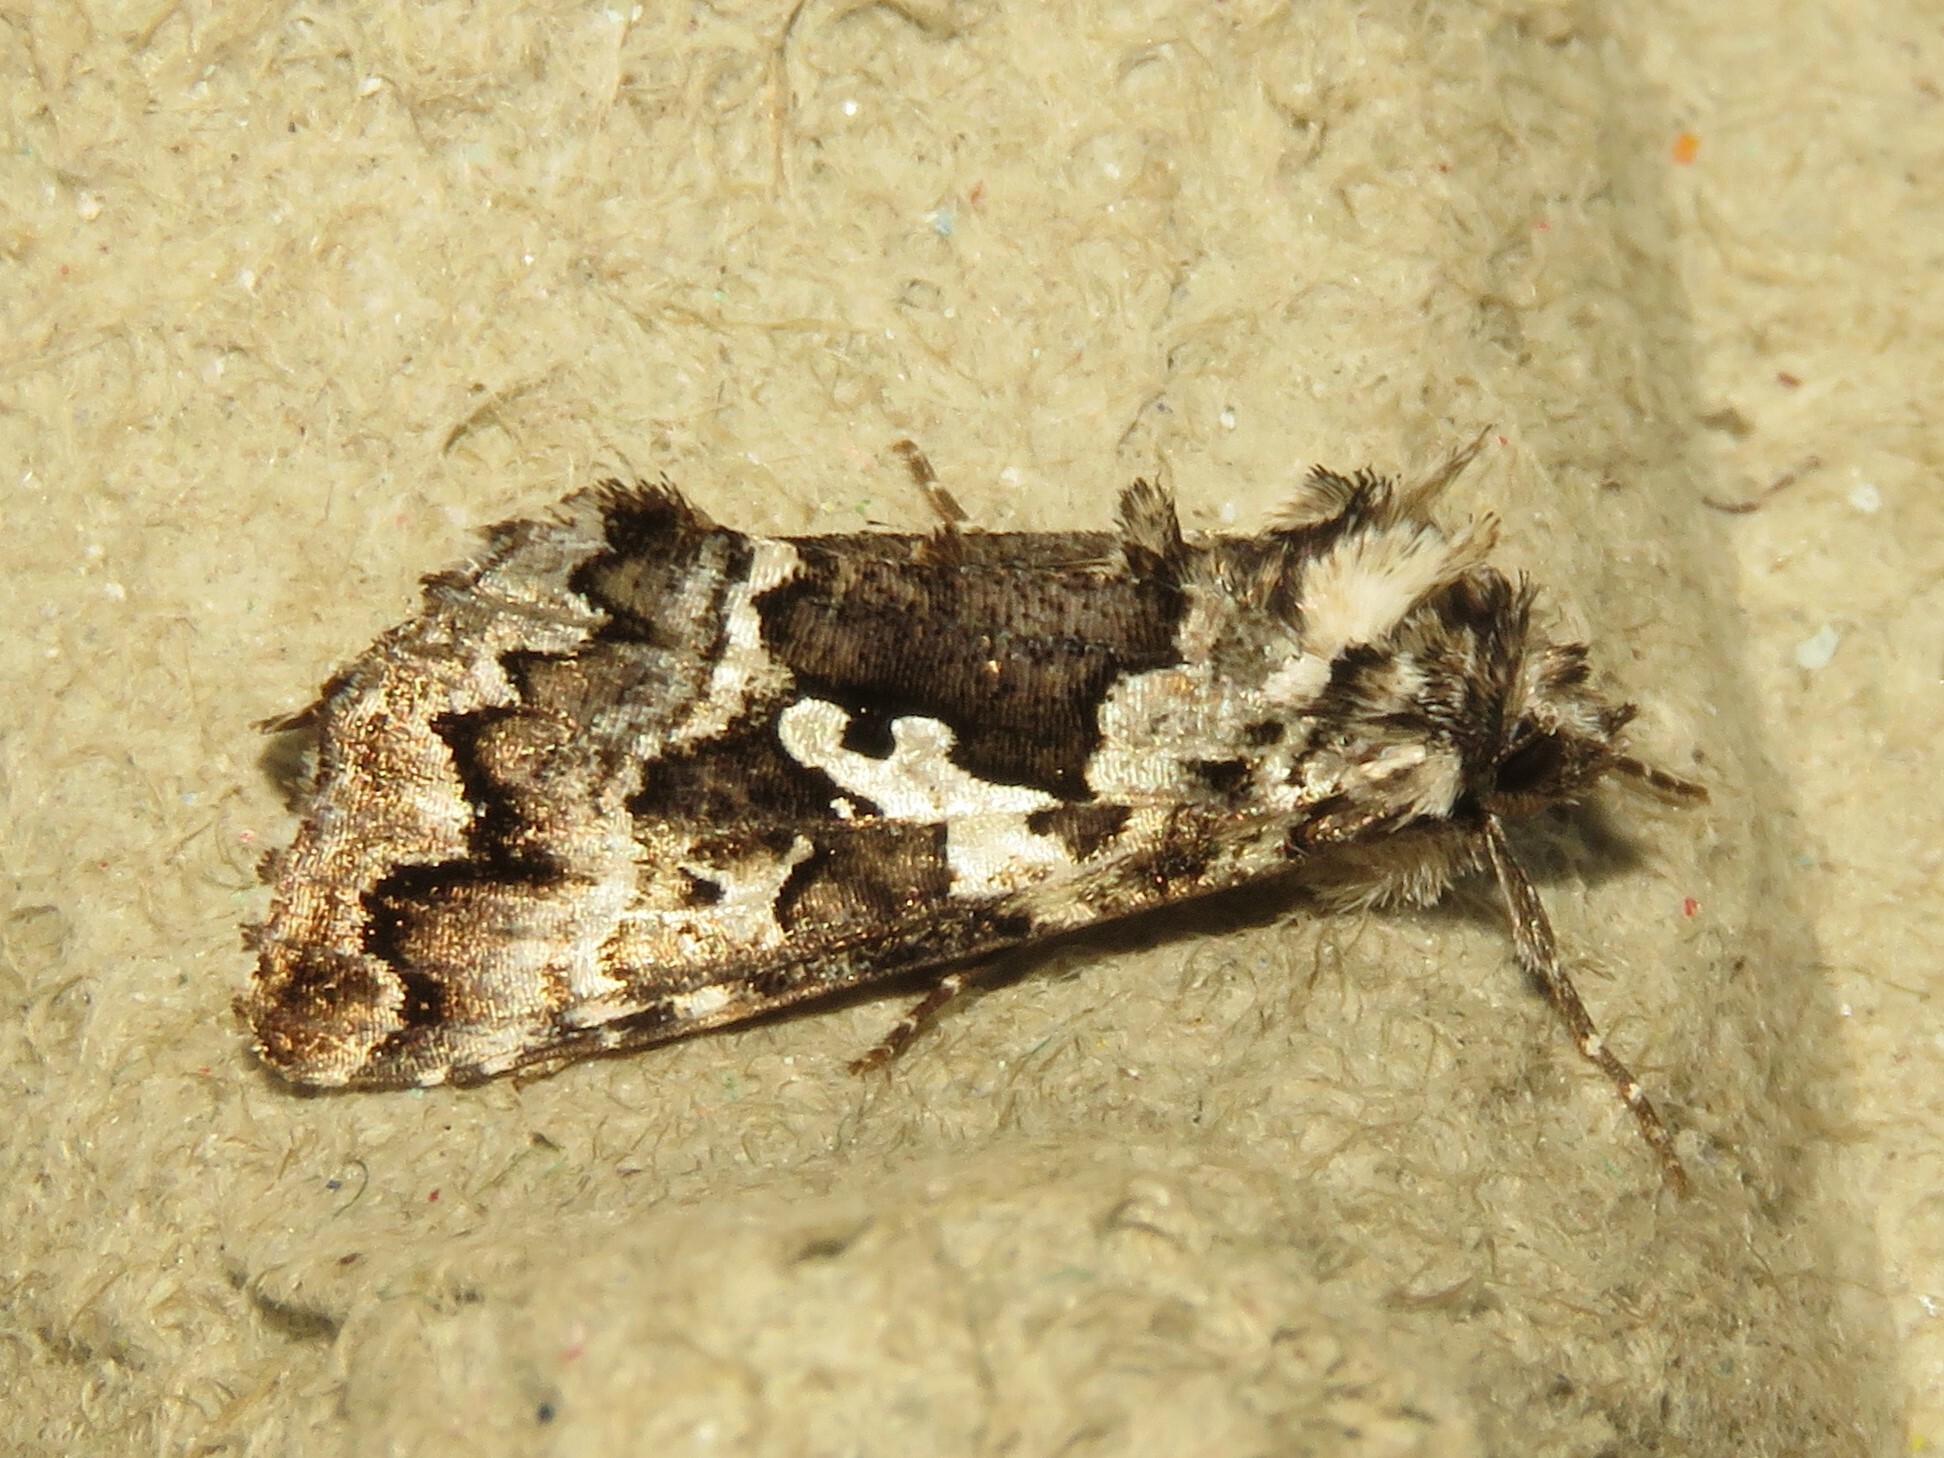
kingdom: Animalia
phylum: Arthropoda
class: Insecta
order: Lepidoptera
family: Noctuidae
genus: Syngrapha
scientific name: Syngrapha rectangula
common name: Angulated cutworm
